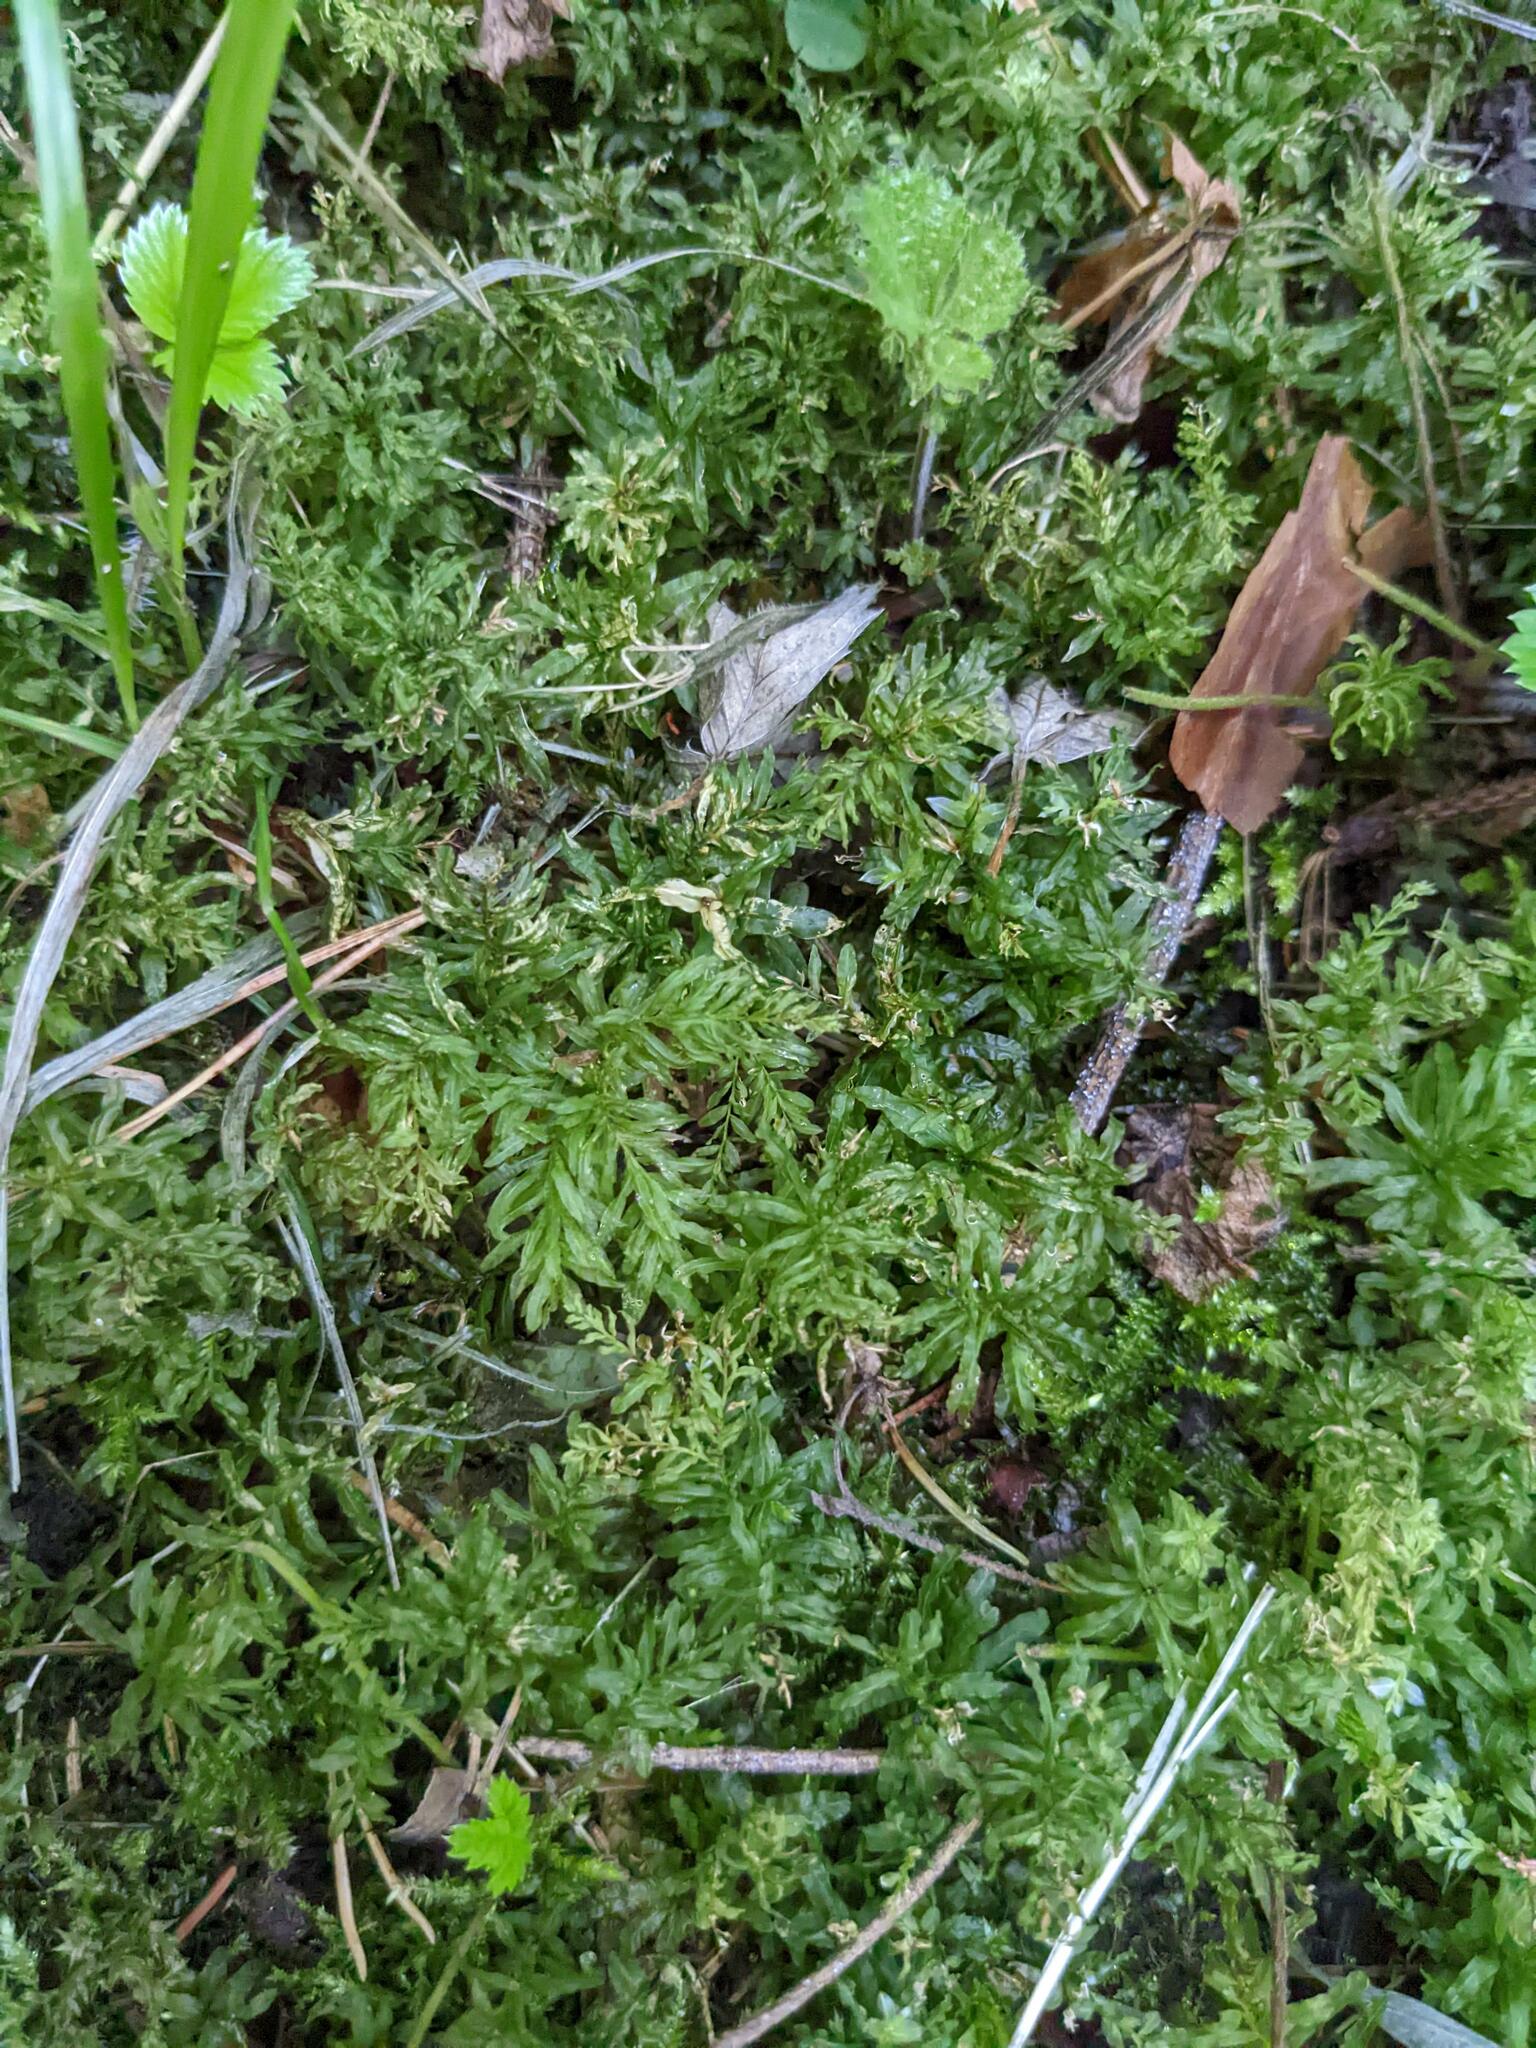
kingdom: Plantae
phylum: Bryophyta
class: Bryopsida
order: Bryales
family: Mniaceae
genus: Plagiomnium
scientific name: Plagiomnium undulatum
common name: Hart's-tongue thyme-moss
